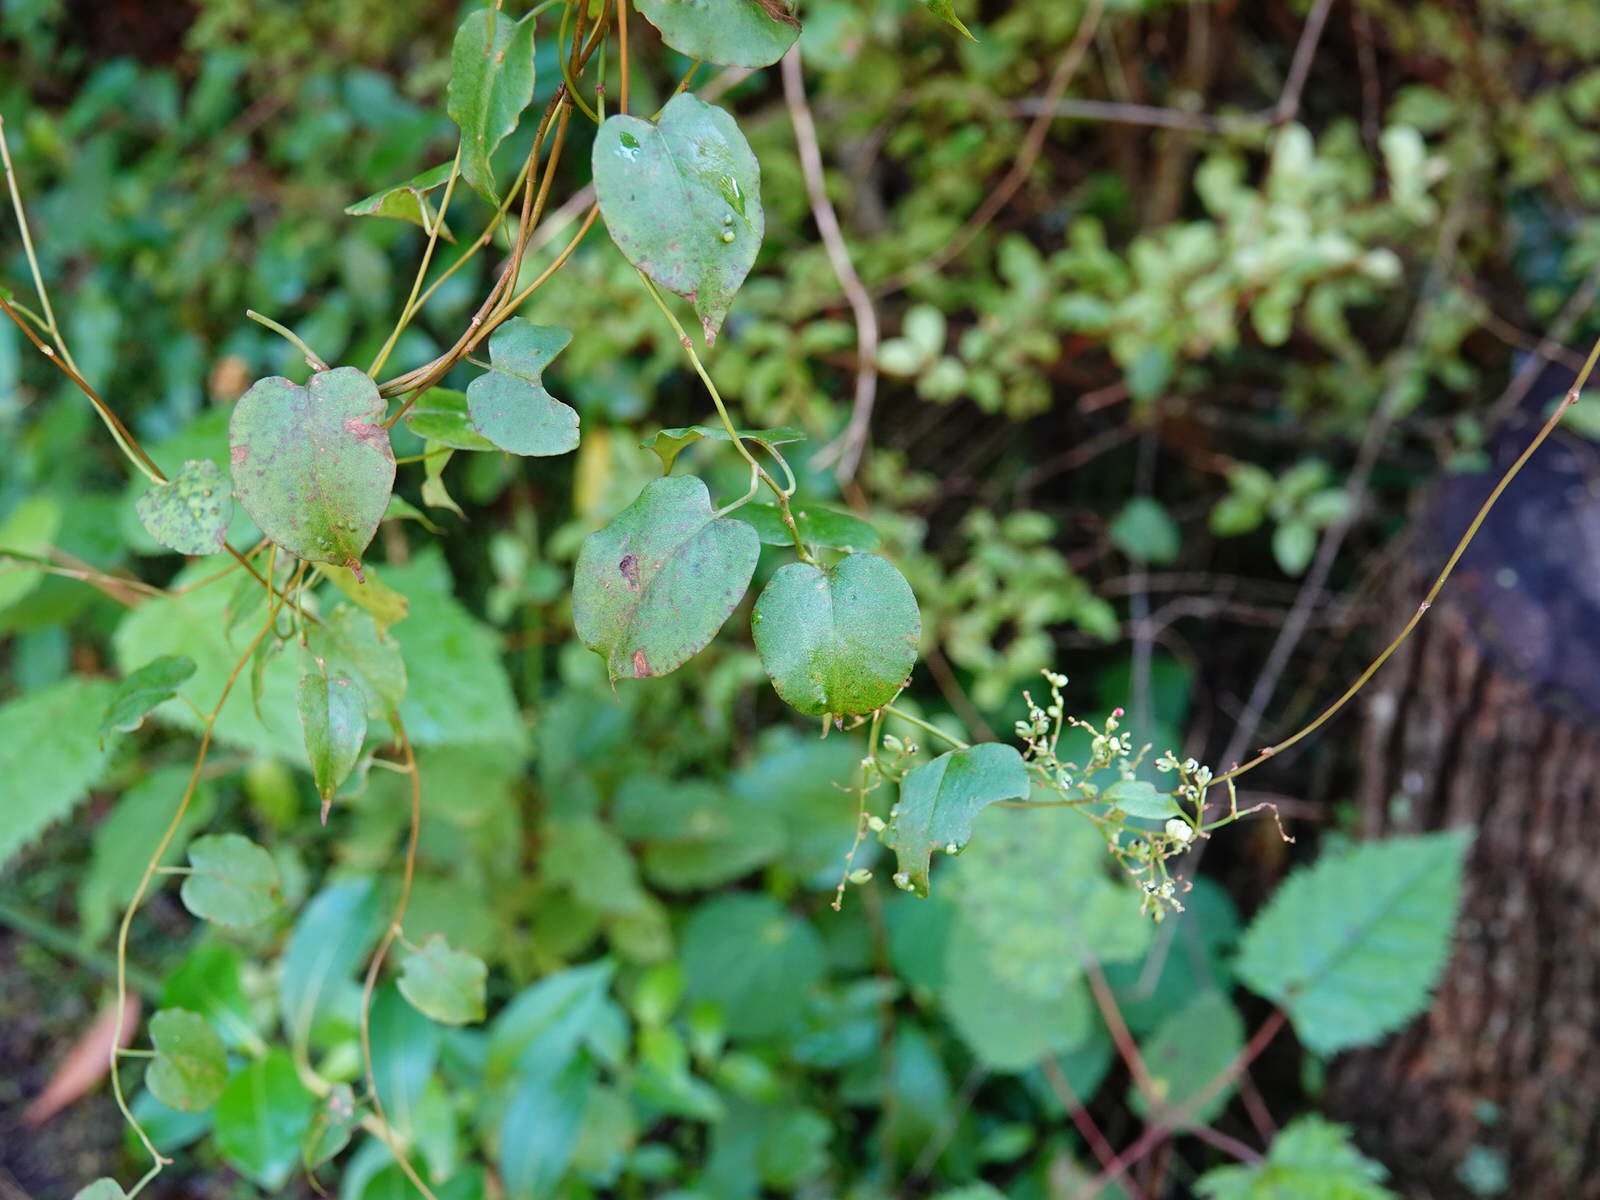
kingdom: Plantae
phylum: Tracheophyta
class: Magnoliopsida
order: Caryophyllales
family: Polygonaceae
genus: Muehlenbeckia
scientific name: Muehlenbeckia australis
